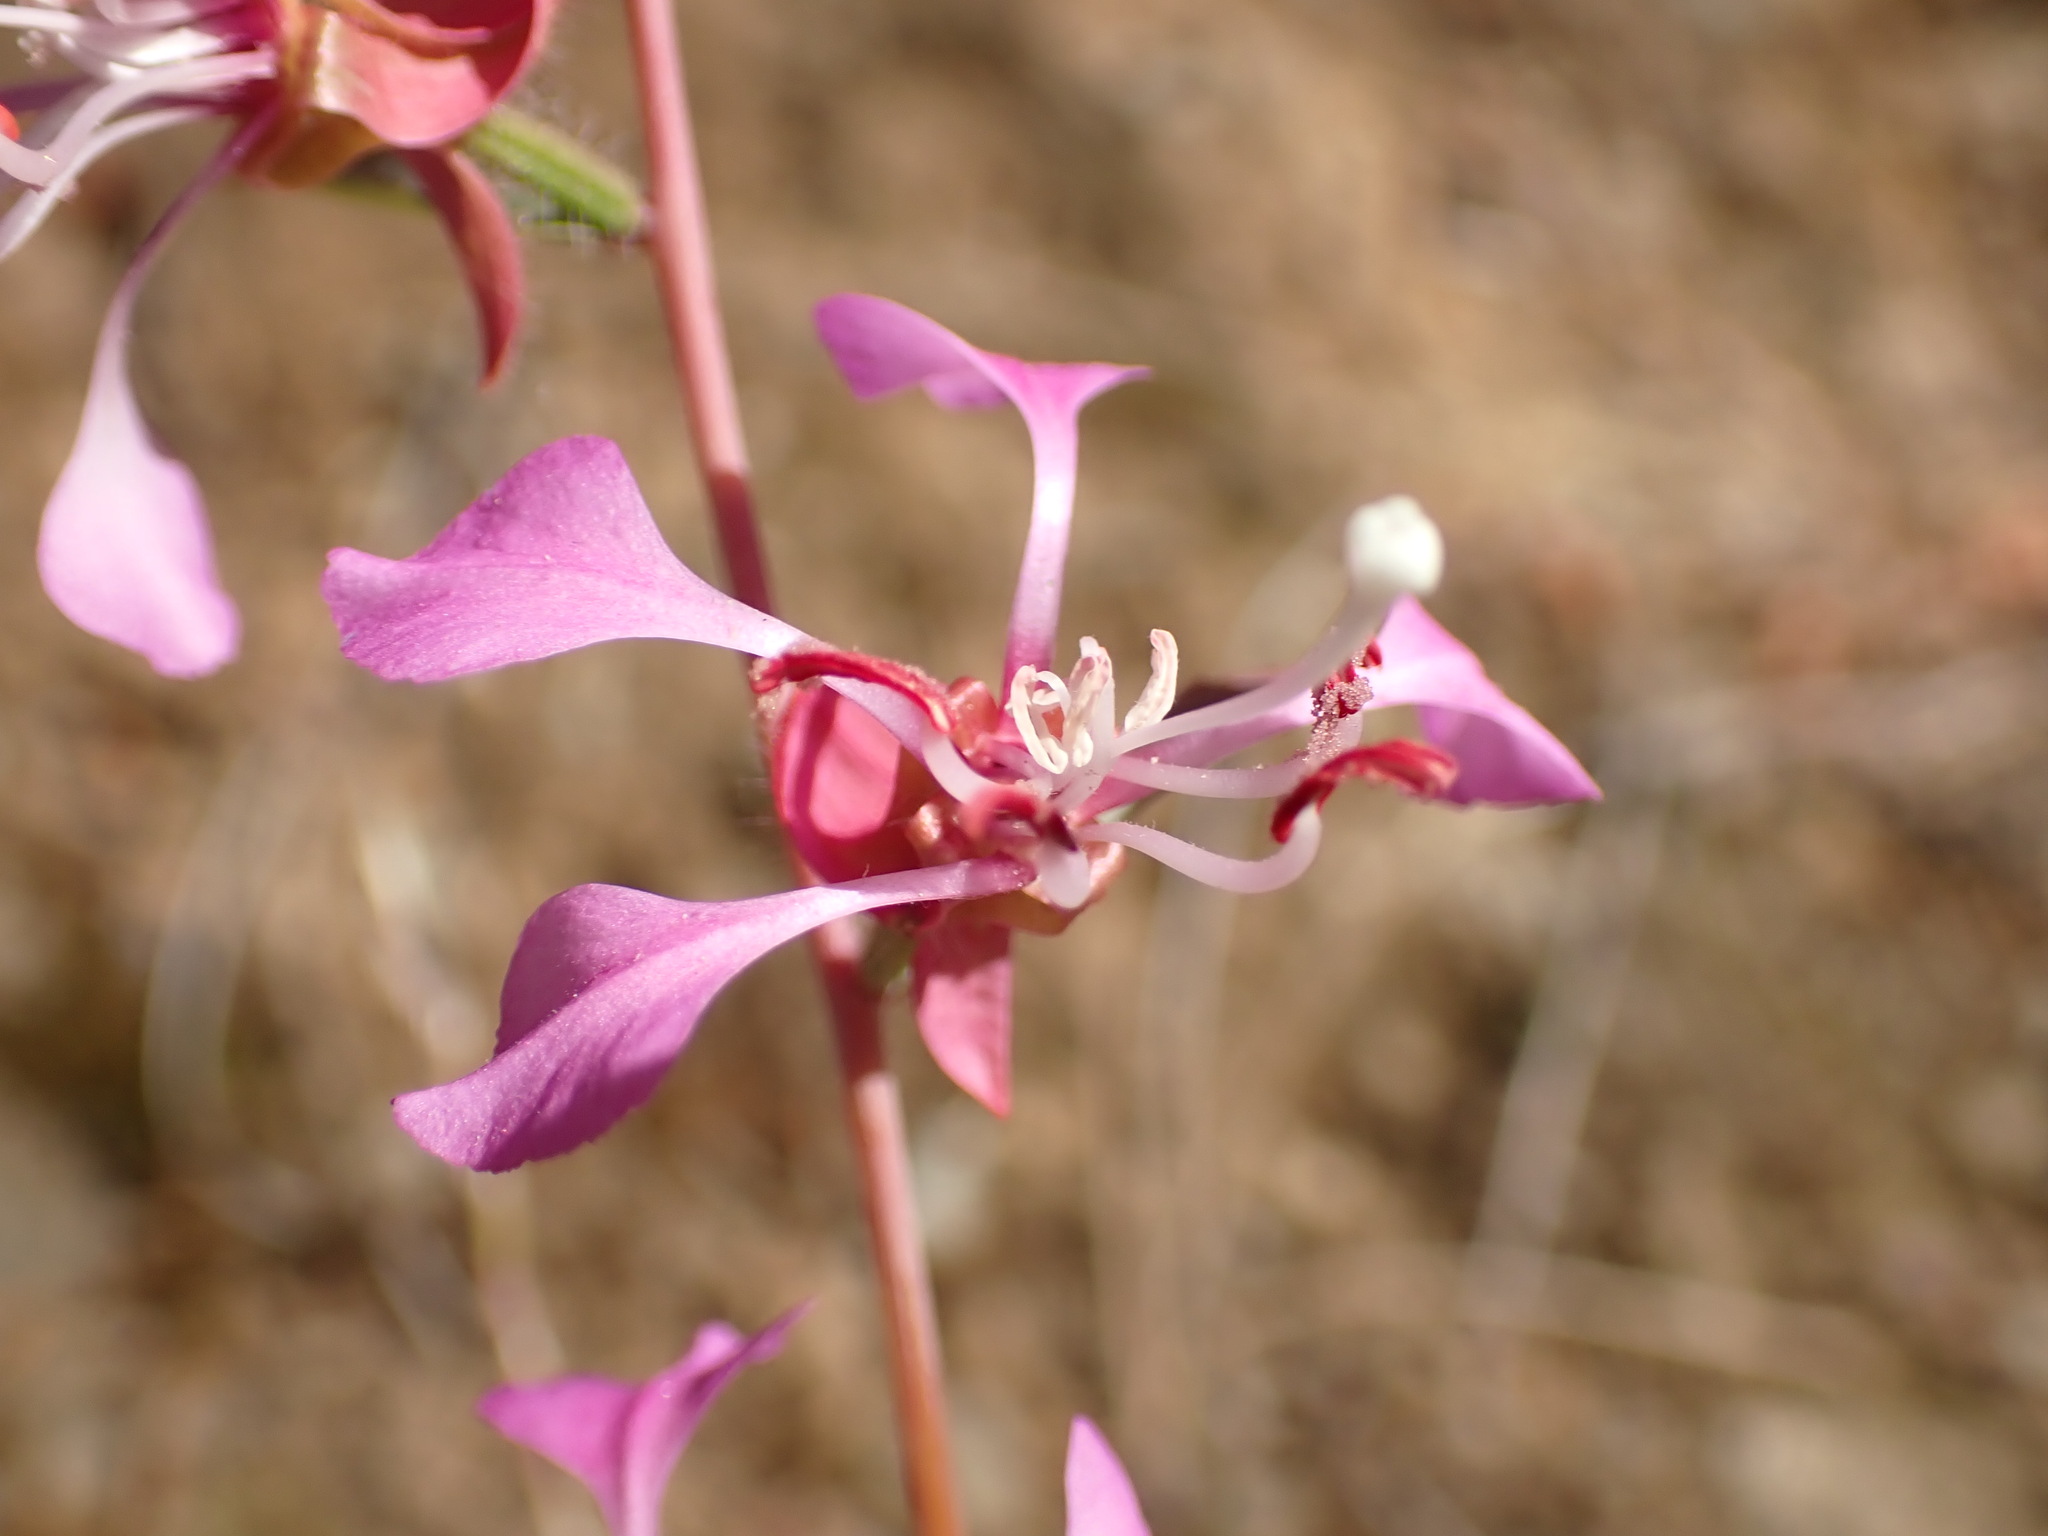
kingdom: Plantae
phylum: Tracheophyta
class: Magnoliopsida
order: Myrtales
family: Onagraceae
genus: Clarkia
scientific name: Clarkia unguiculata
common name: Clarkia
